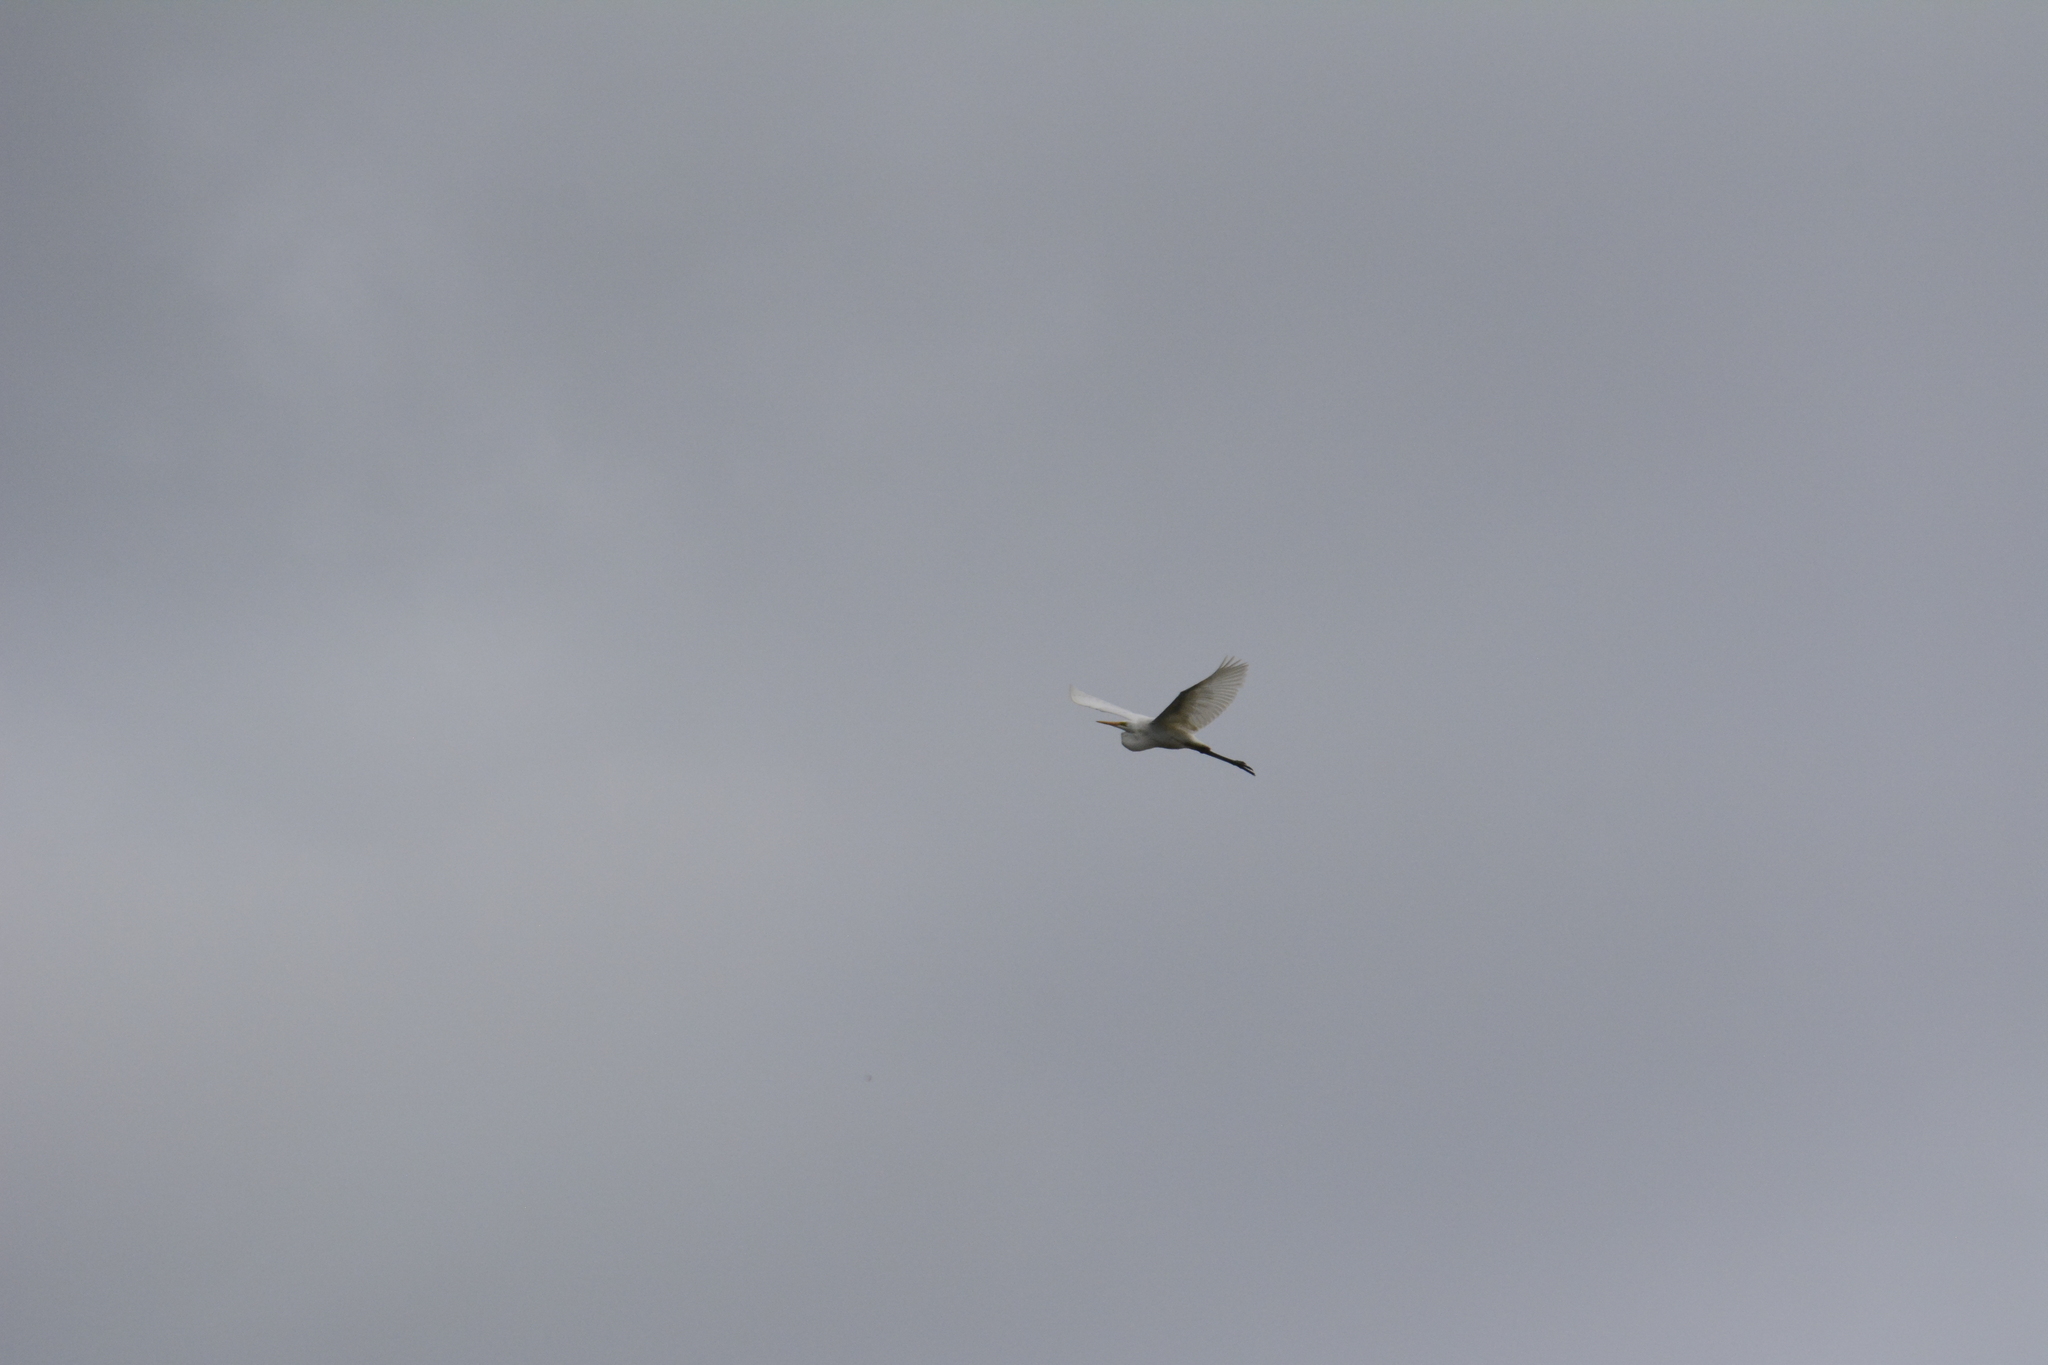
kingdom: Animalia
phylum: Chordata
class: Aves
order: Pelecaniformes
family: Ardeidae
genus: Ardea
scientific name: Ardea alba
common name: Great egret
